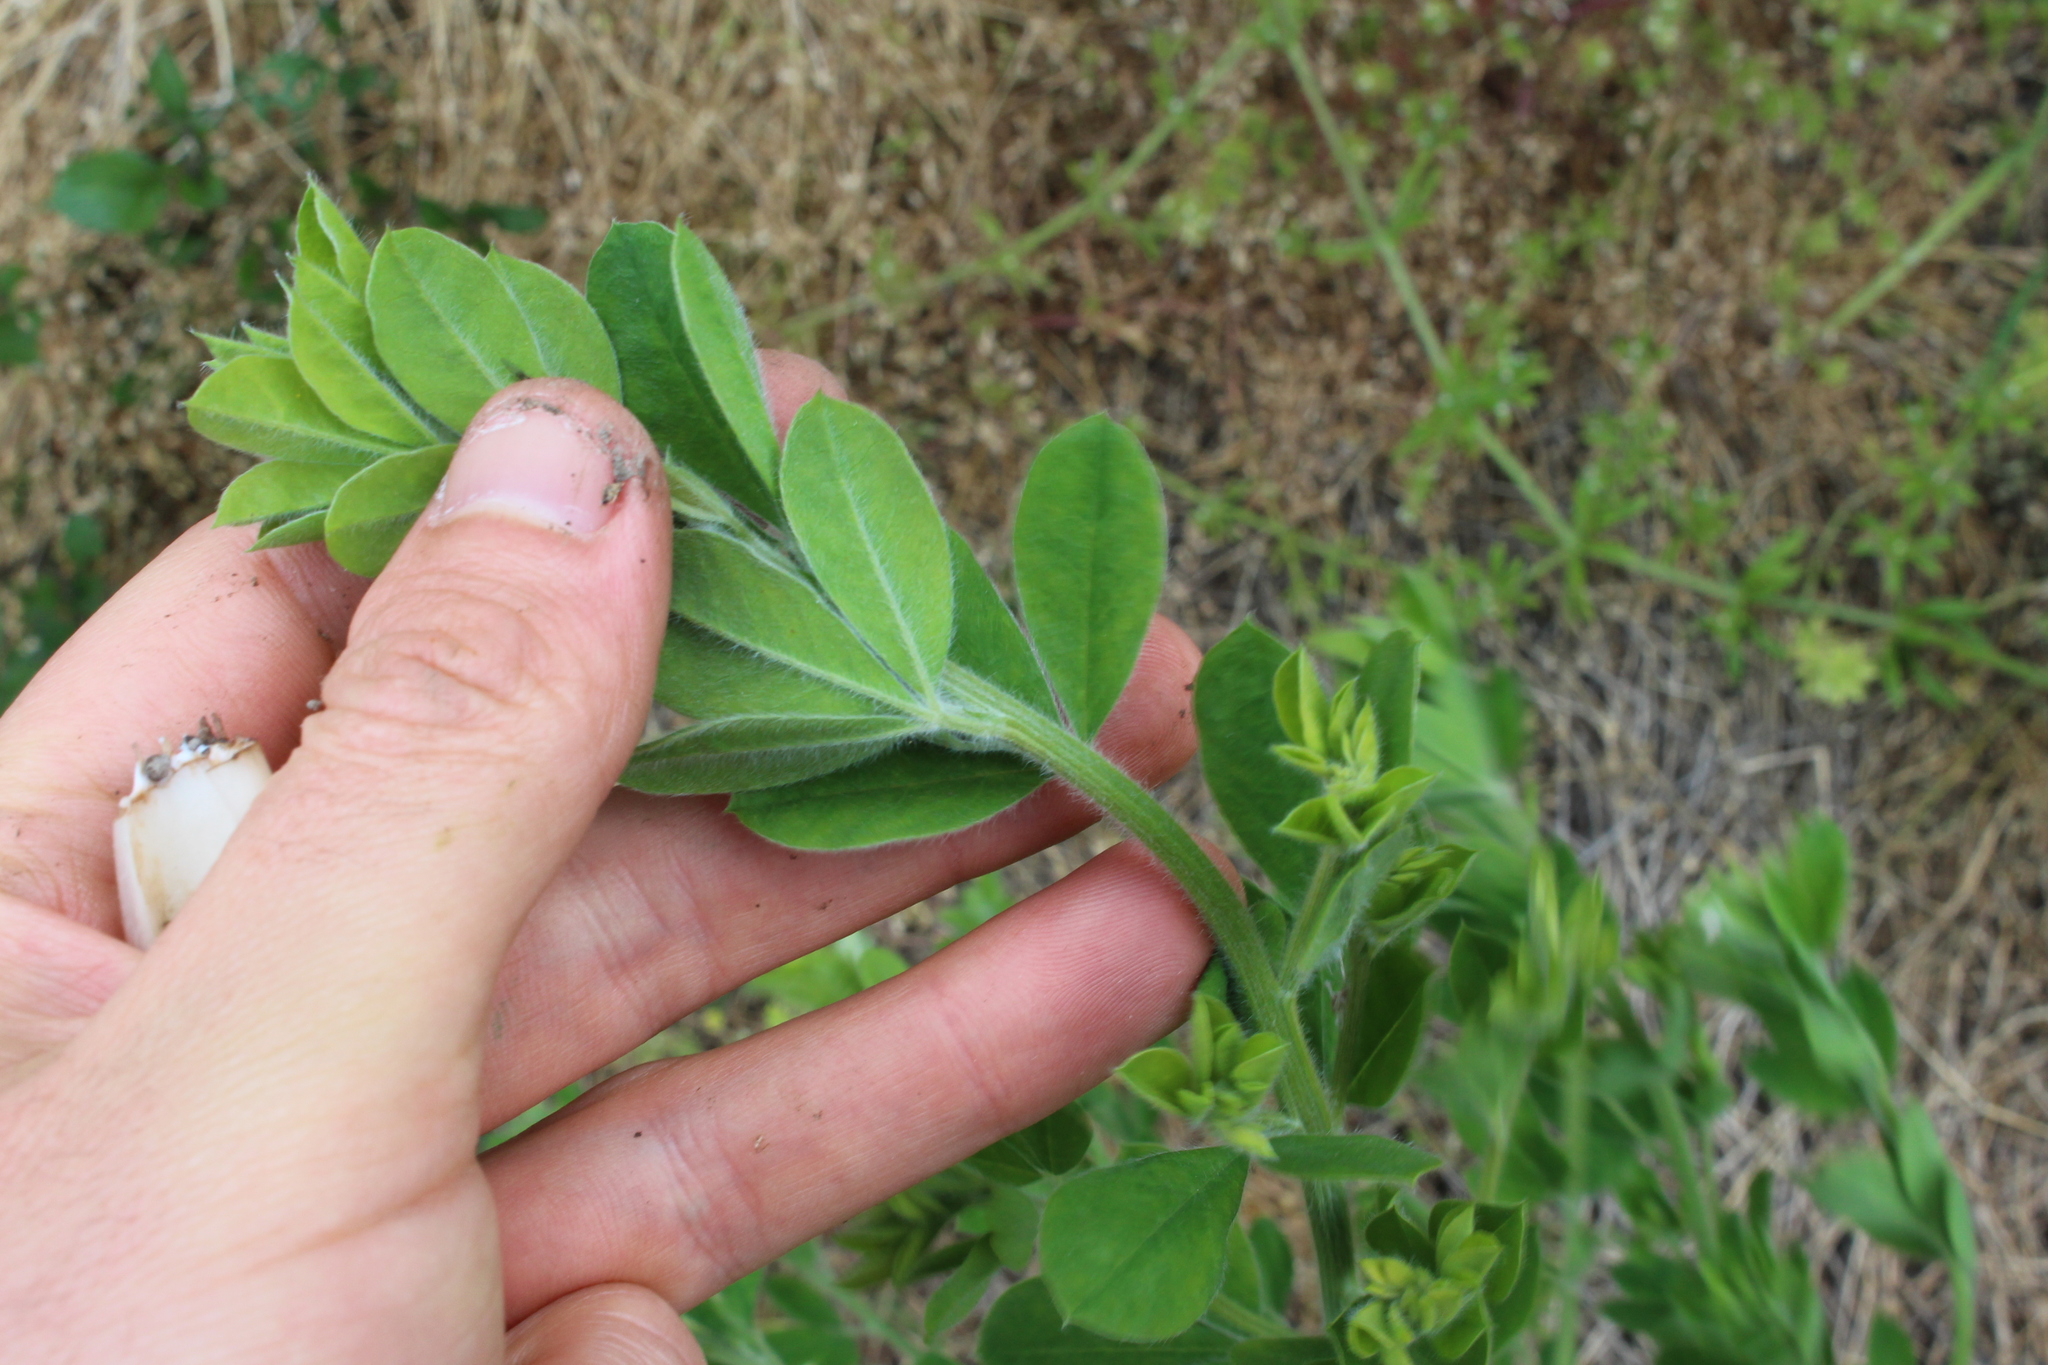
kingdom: Plantae
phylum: Tracheophyta
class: Magnoliopsida
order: Fabales
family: Fabaceae
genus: Genista
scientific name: Genista monspessulana
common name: Montpellier broom
